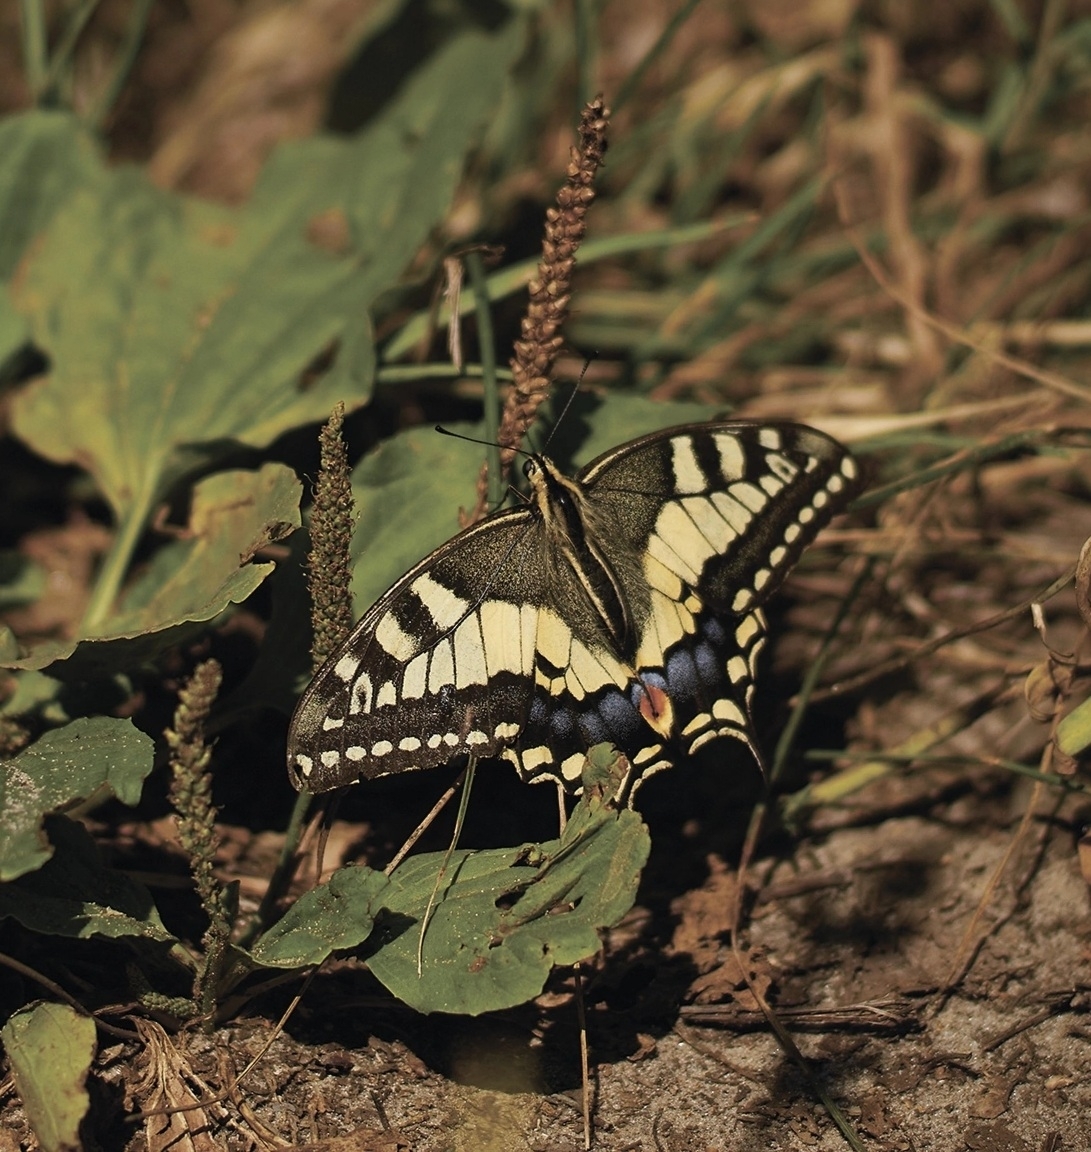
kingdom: Animalia
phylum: Arthropoda
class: Insecta
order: Lepidoptera
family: Papilionidae
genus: Papilio
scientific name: Papilio machaon
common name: Swallowtail
